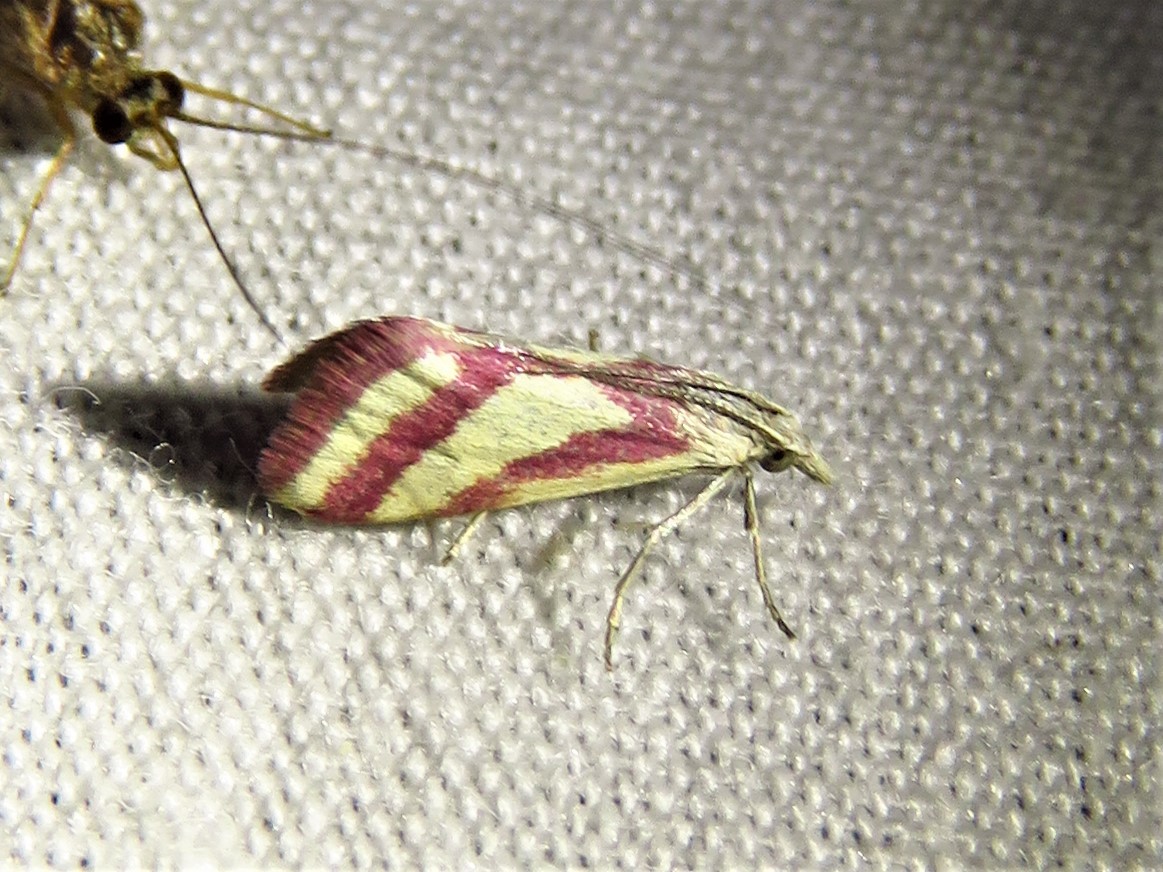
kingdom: Animalia
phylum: Arthropoda
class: Insecta
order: Lepidoptera
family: Crambidae
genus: Microtheoris
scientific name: Microtheoris vibicalis
